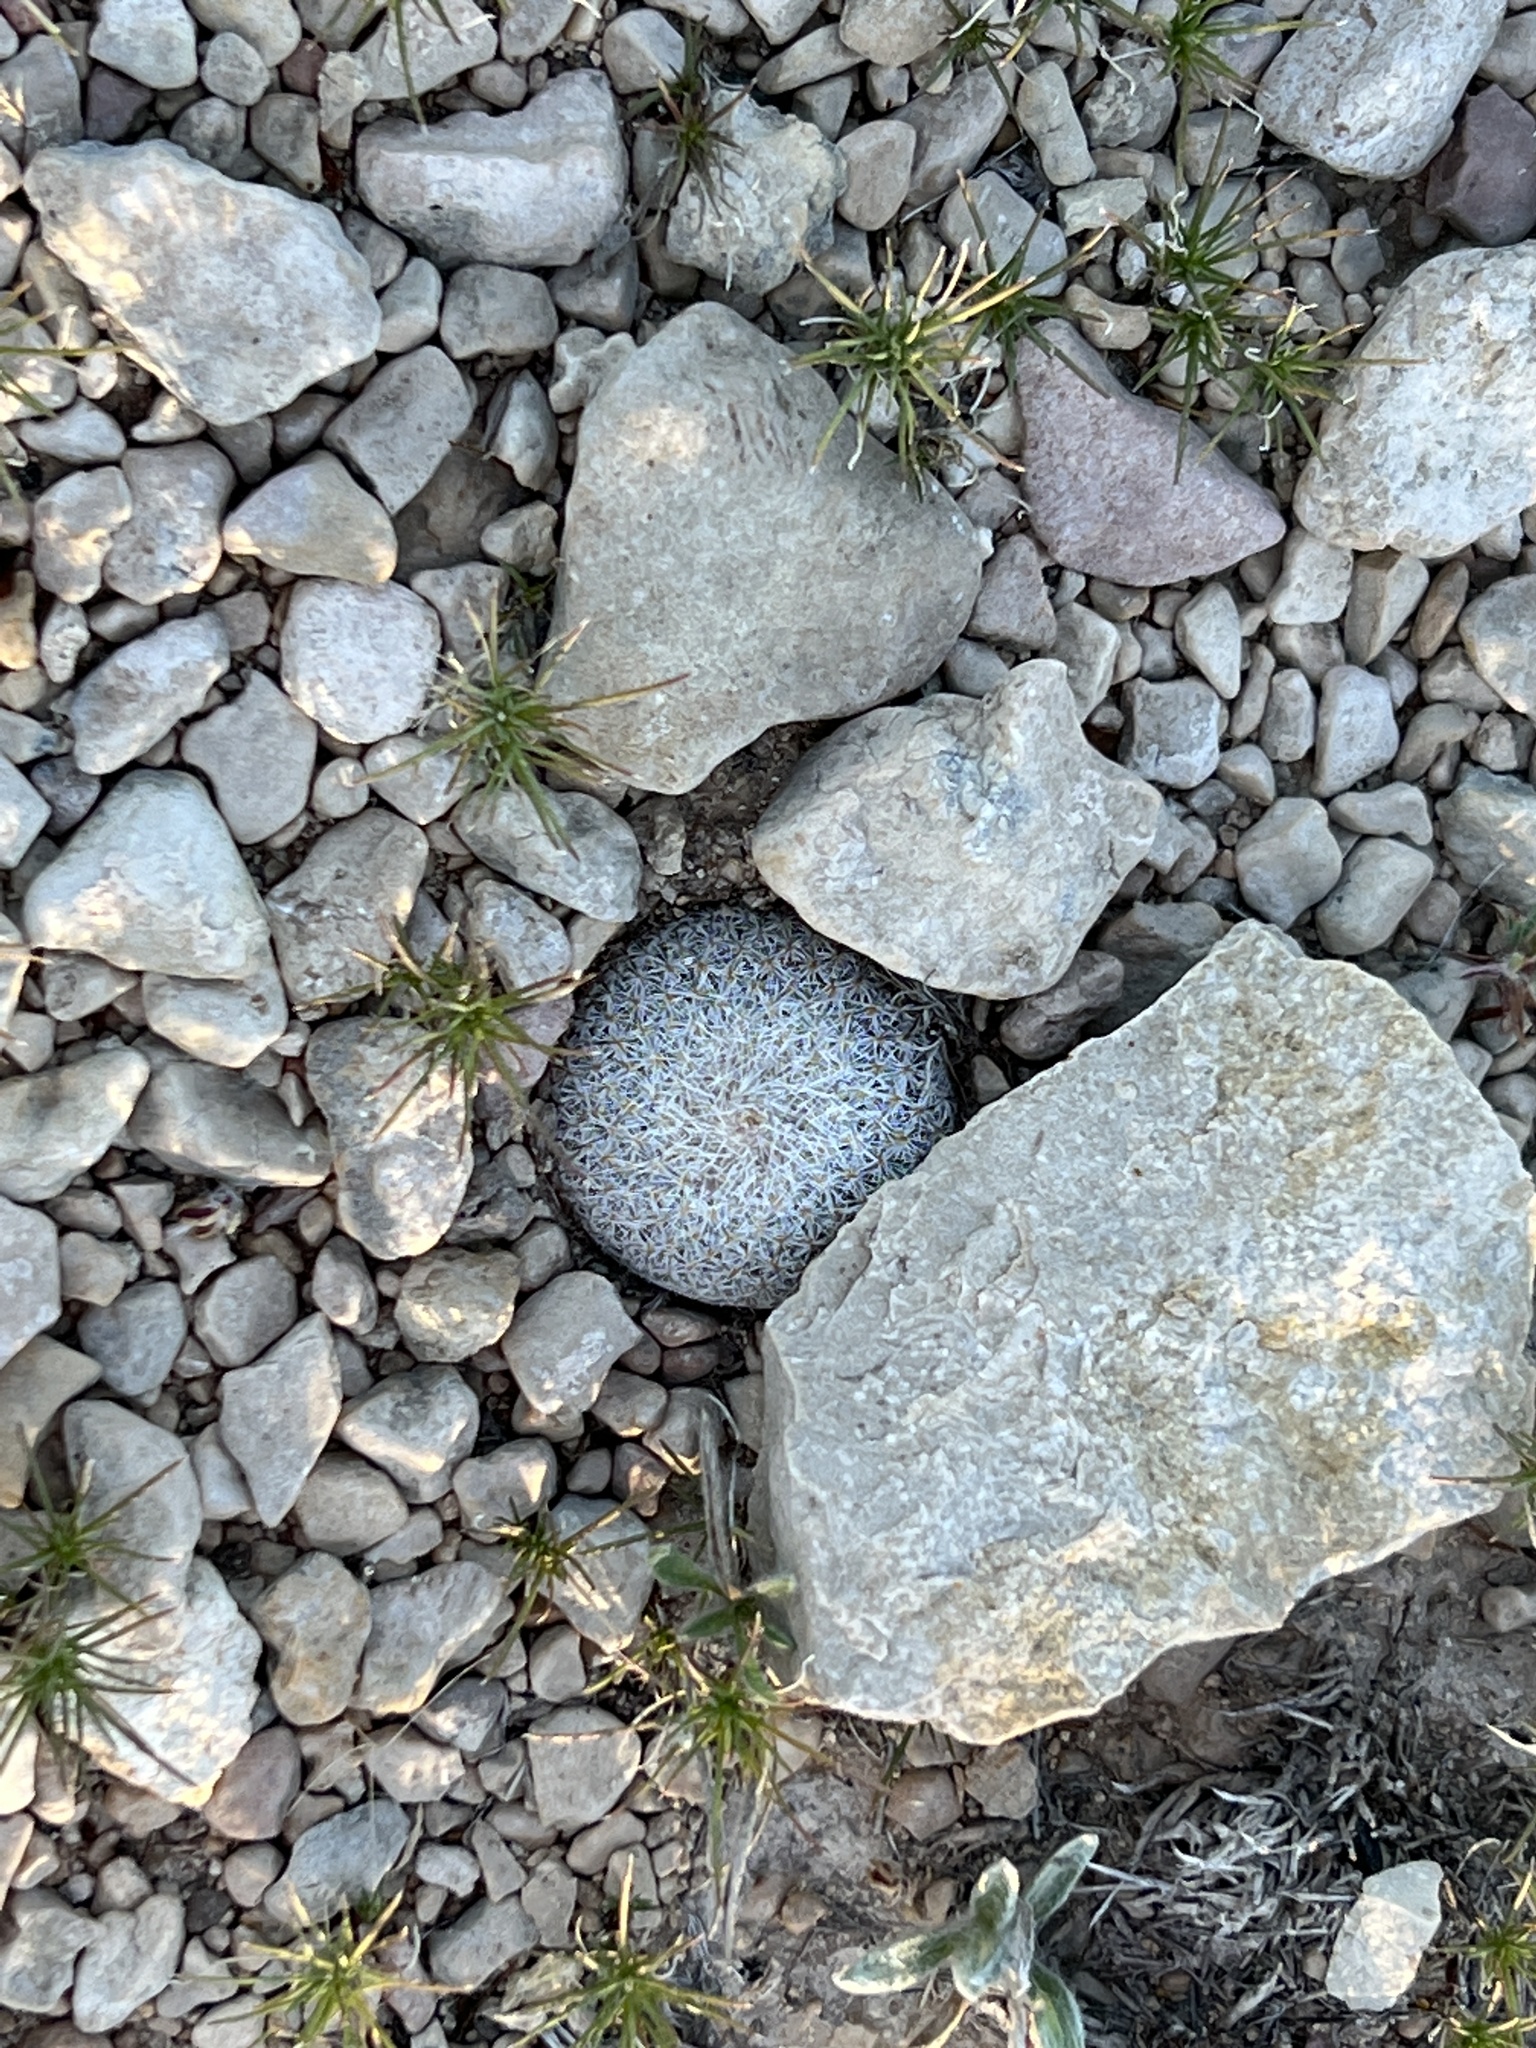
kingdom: Plantae
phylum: Tracheophyta
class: Magnoliopsida
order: Caryophyllales
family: Cactaceae
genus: Epithelantha
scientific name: Epithelantha micromeris
